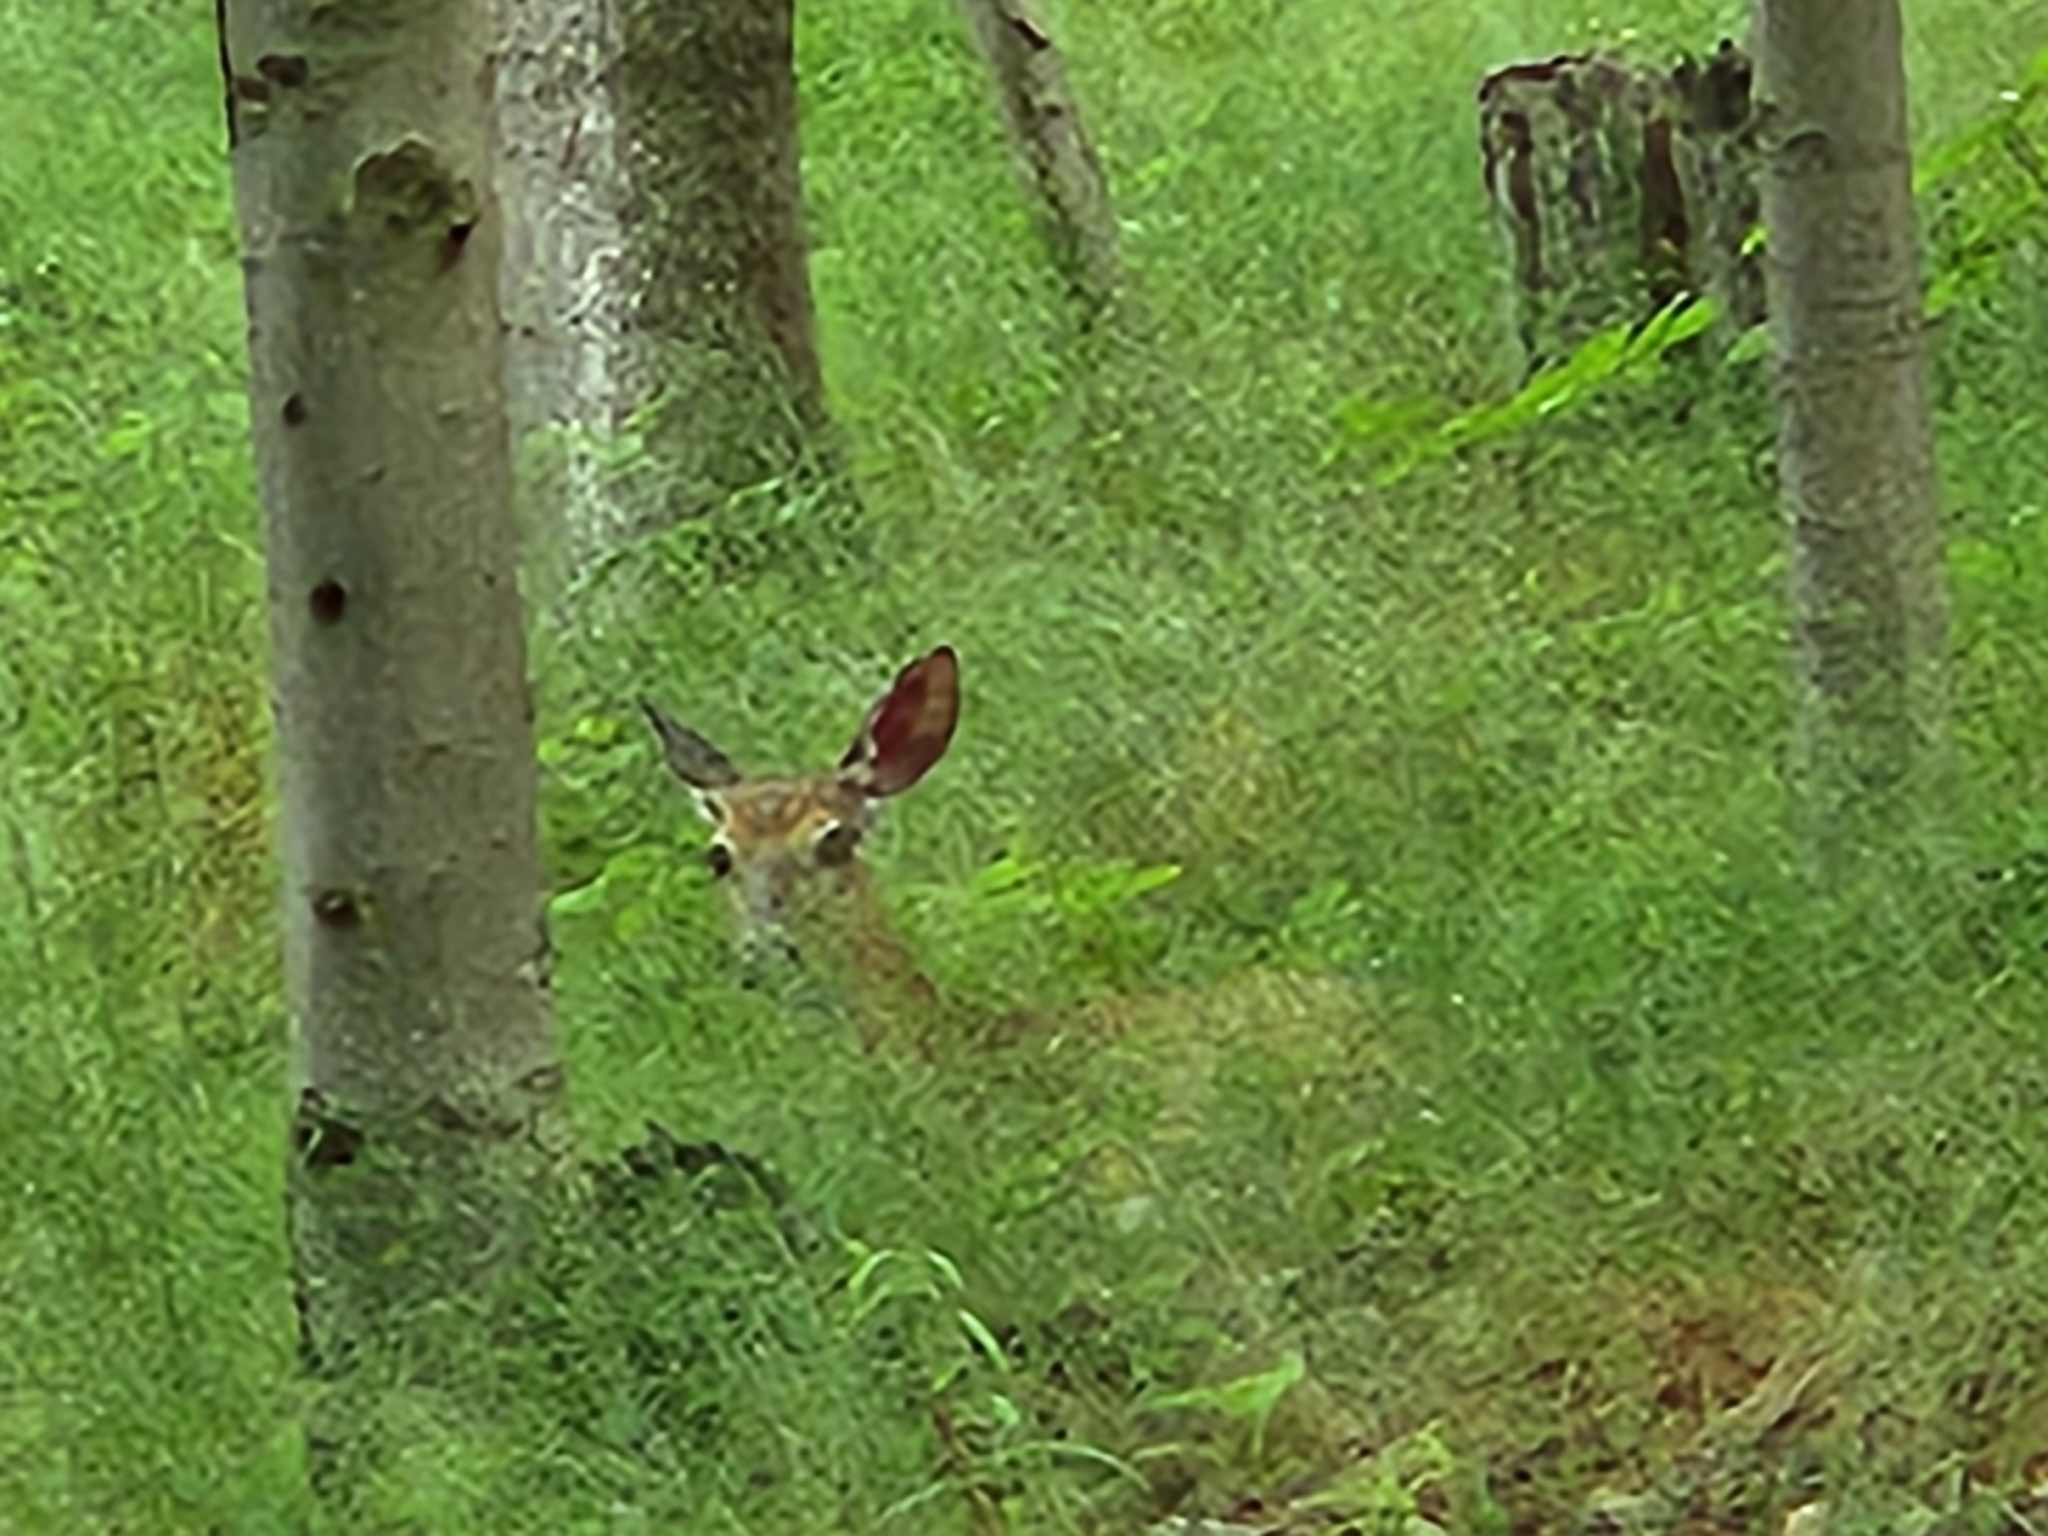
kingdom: Animalia
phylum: Chordata
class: Mammalia
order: Artiodactyla
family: Cervidae
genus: Odocoileus
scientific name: Odocoileus virginianus
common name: White-tailed deer
